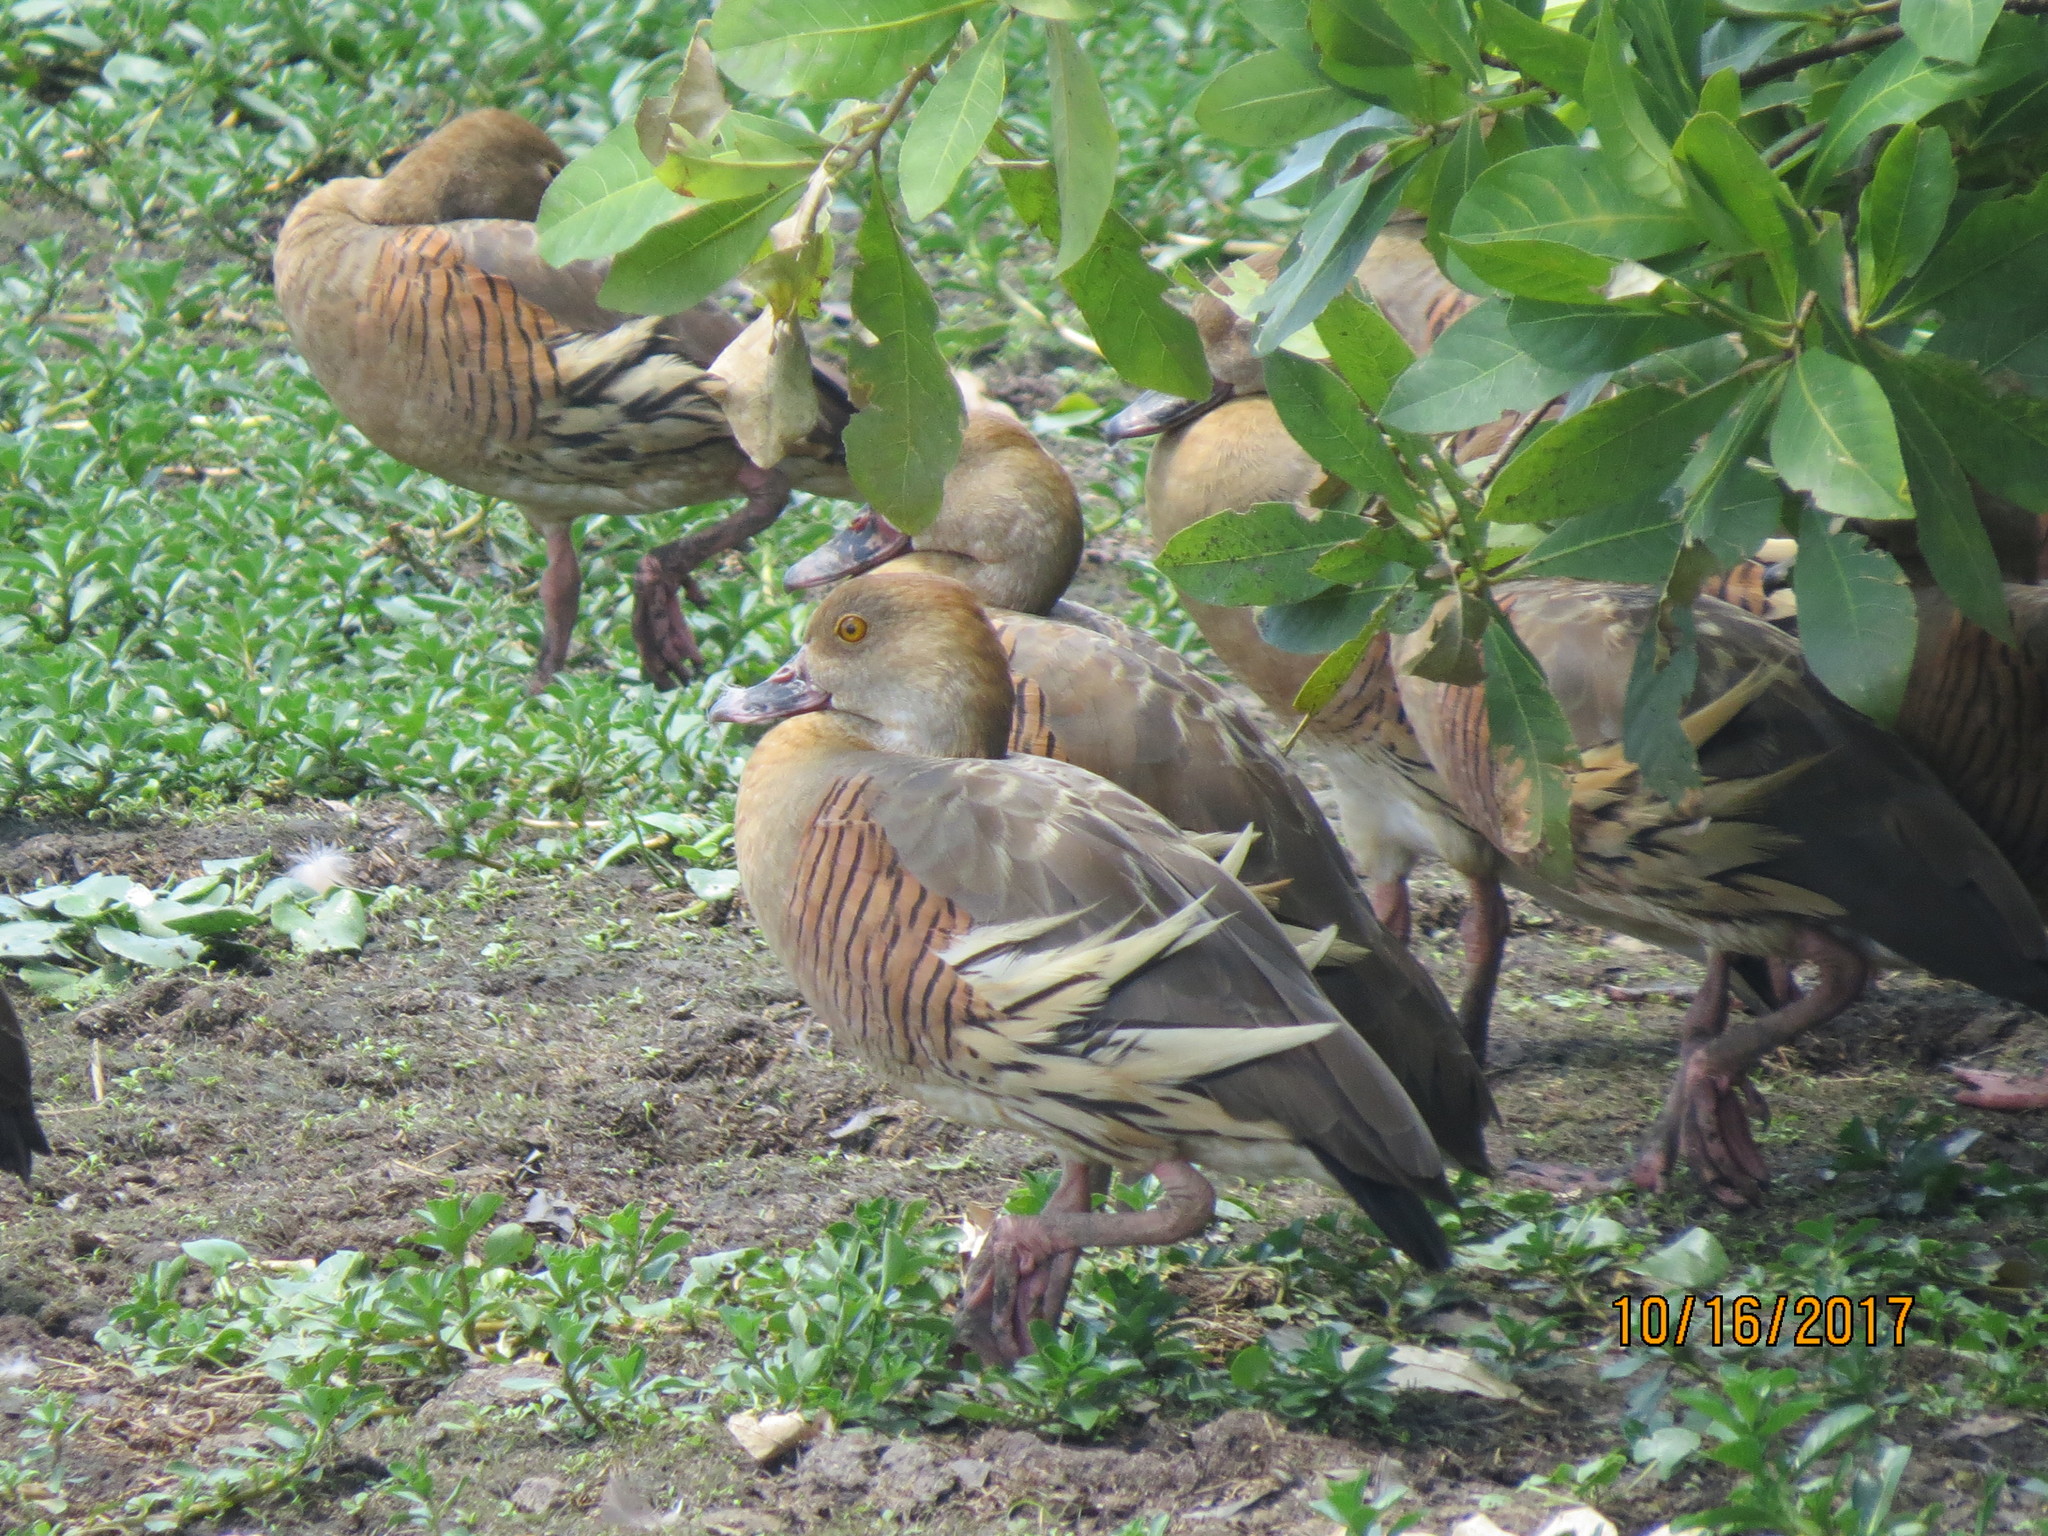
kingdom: Animalia
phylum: Chordata
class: Aves
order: Anseriformes
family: Anatidae
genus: Dendrocygna
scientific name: Dendrocygna eytoni
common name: Plumed whistling-duck
